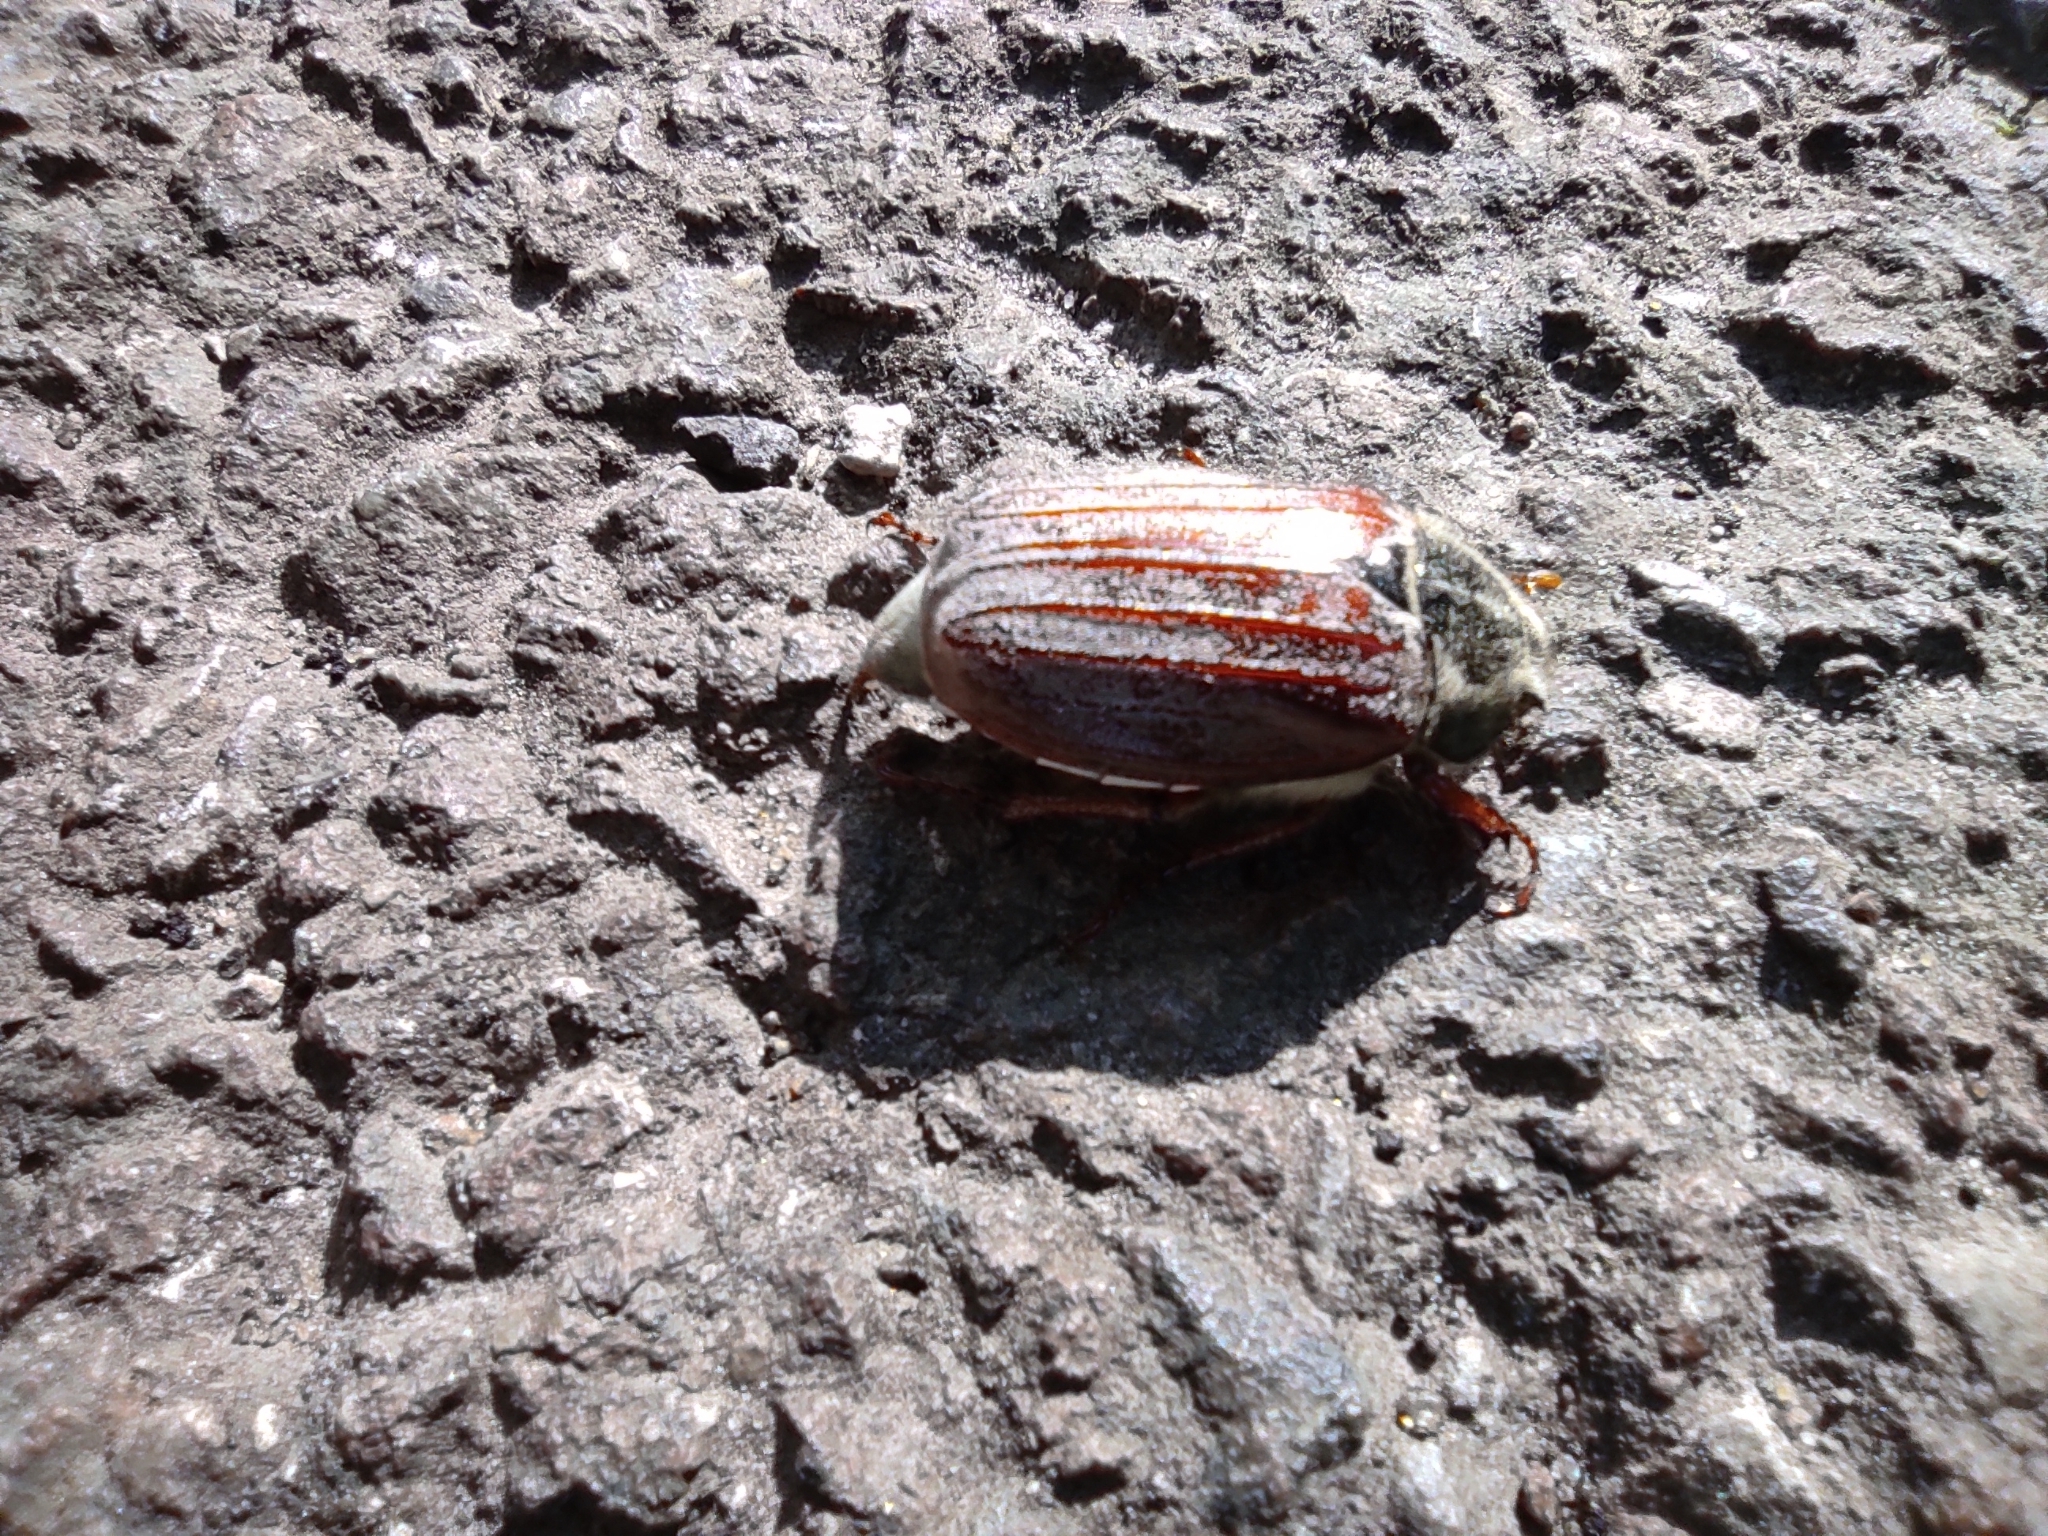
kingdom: Animalia
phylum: Arthropoda
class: Insecta
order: Coleoptera
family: Scarabaeidae
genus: Melolontha
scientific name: Melolontha melolontha
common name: Cockchafer maybeetle
